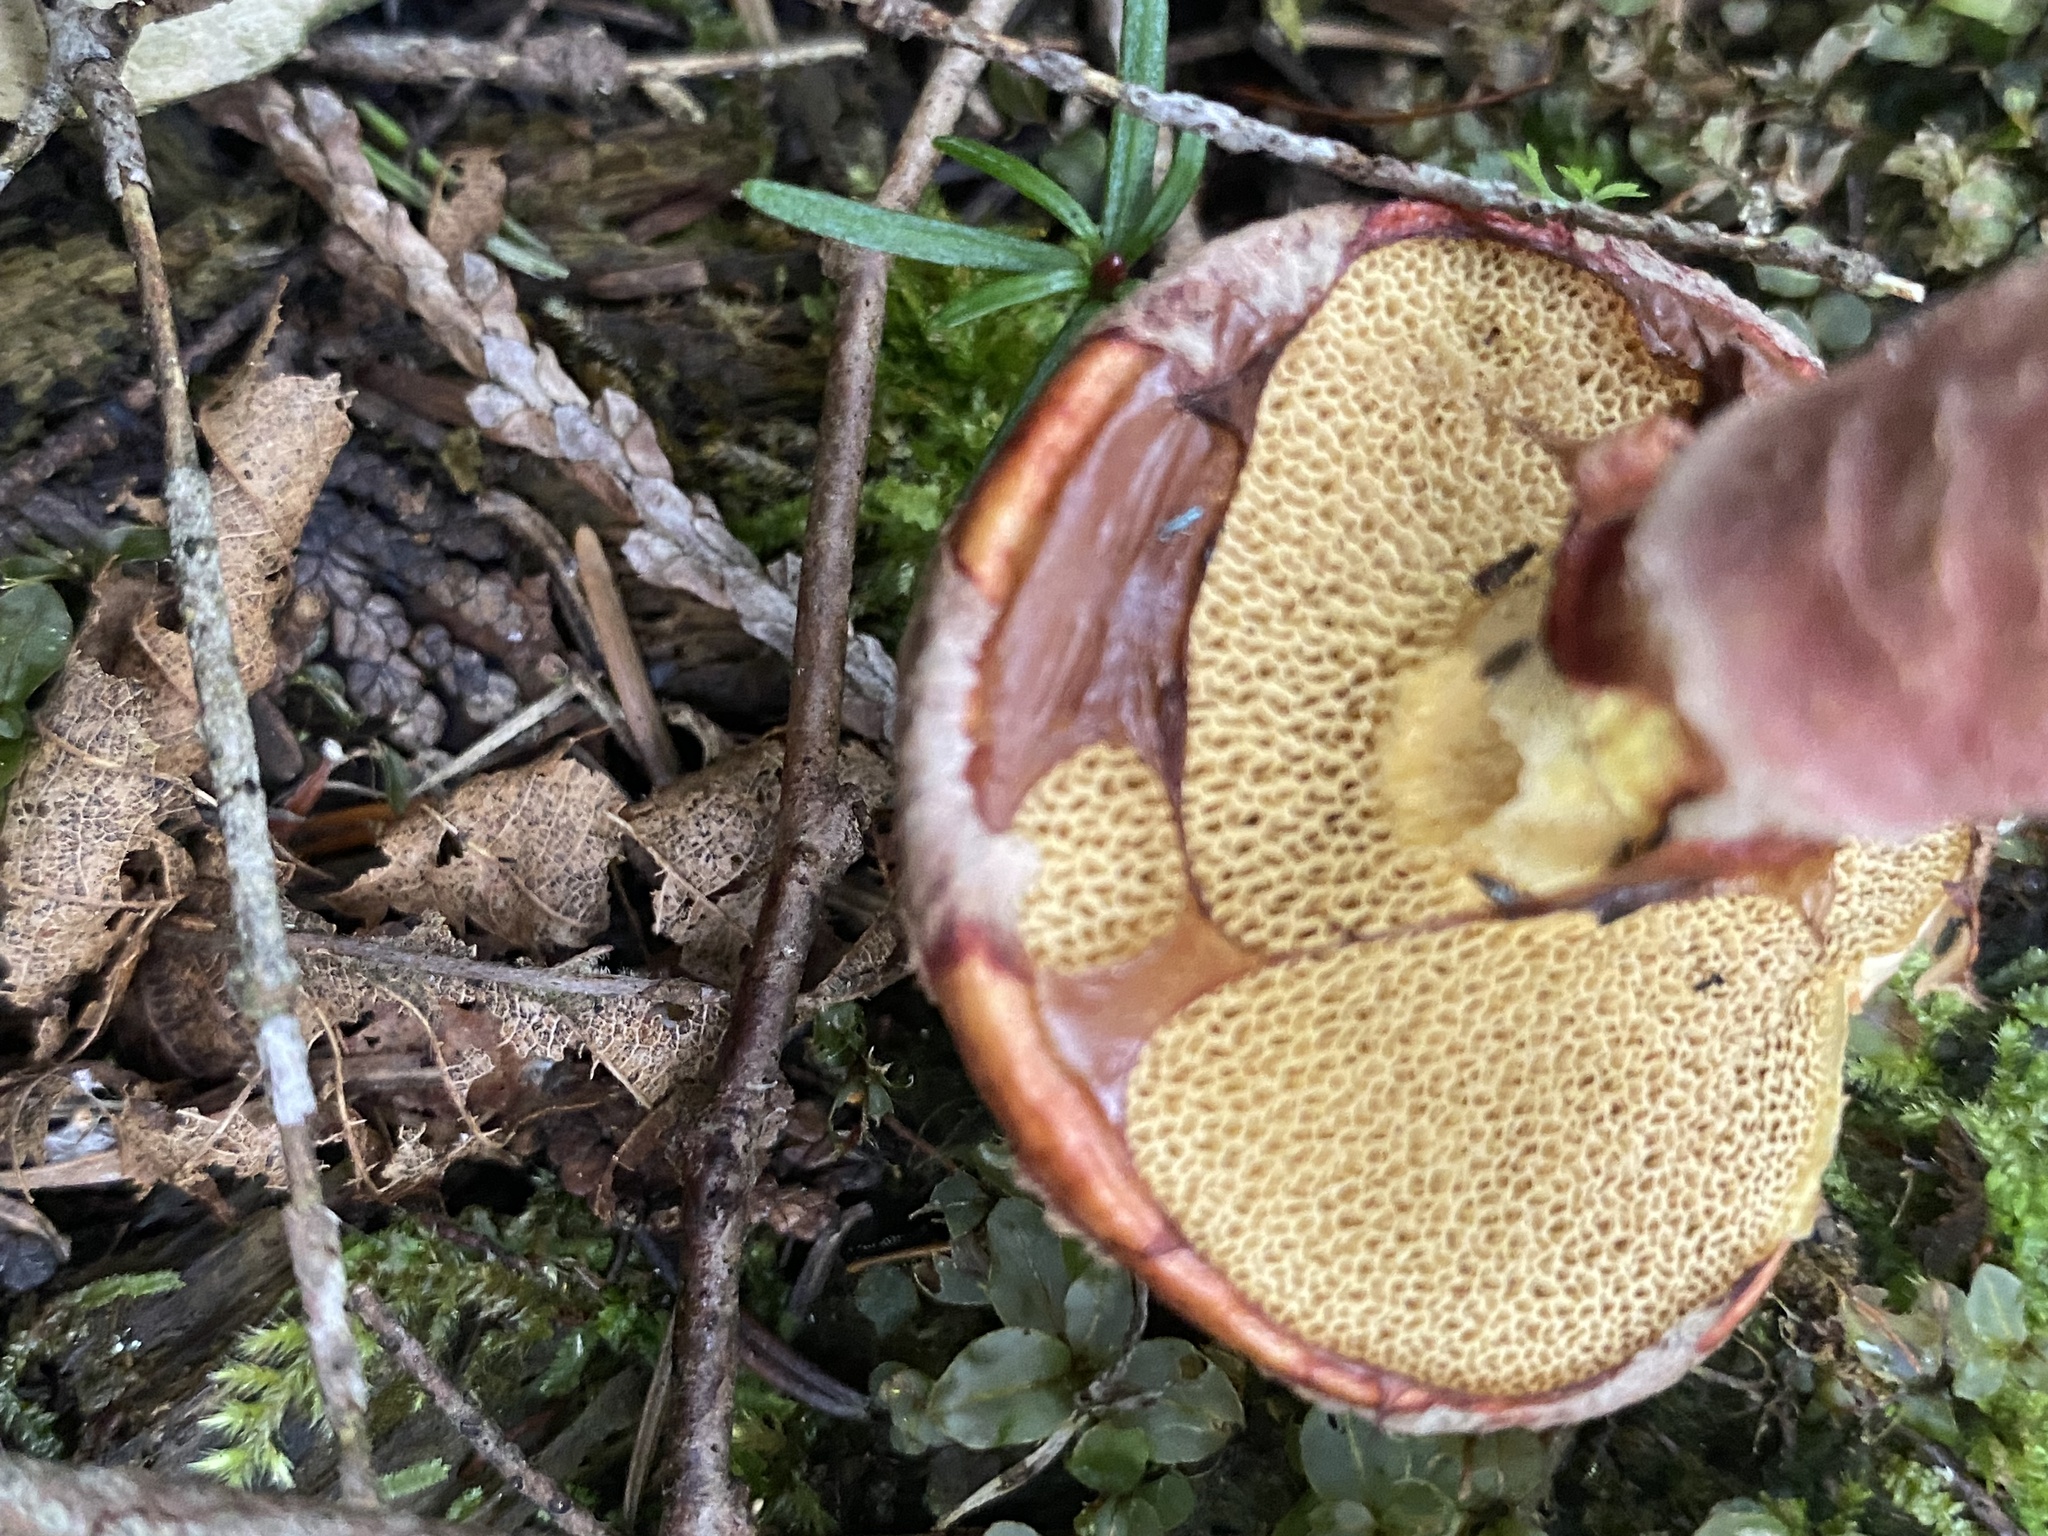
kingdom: Fungi
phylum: Basidiomycota
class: Agaricomycetes
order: Boletales
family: Suillaceae
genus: Boletinus
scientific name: Boletinus spectabilis
